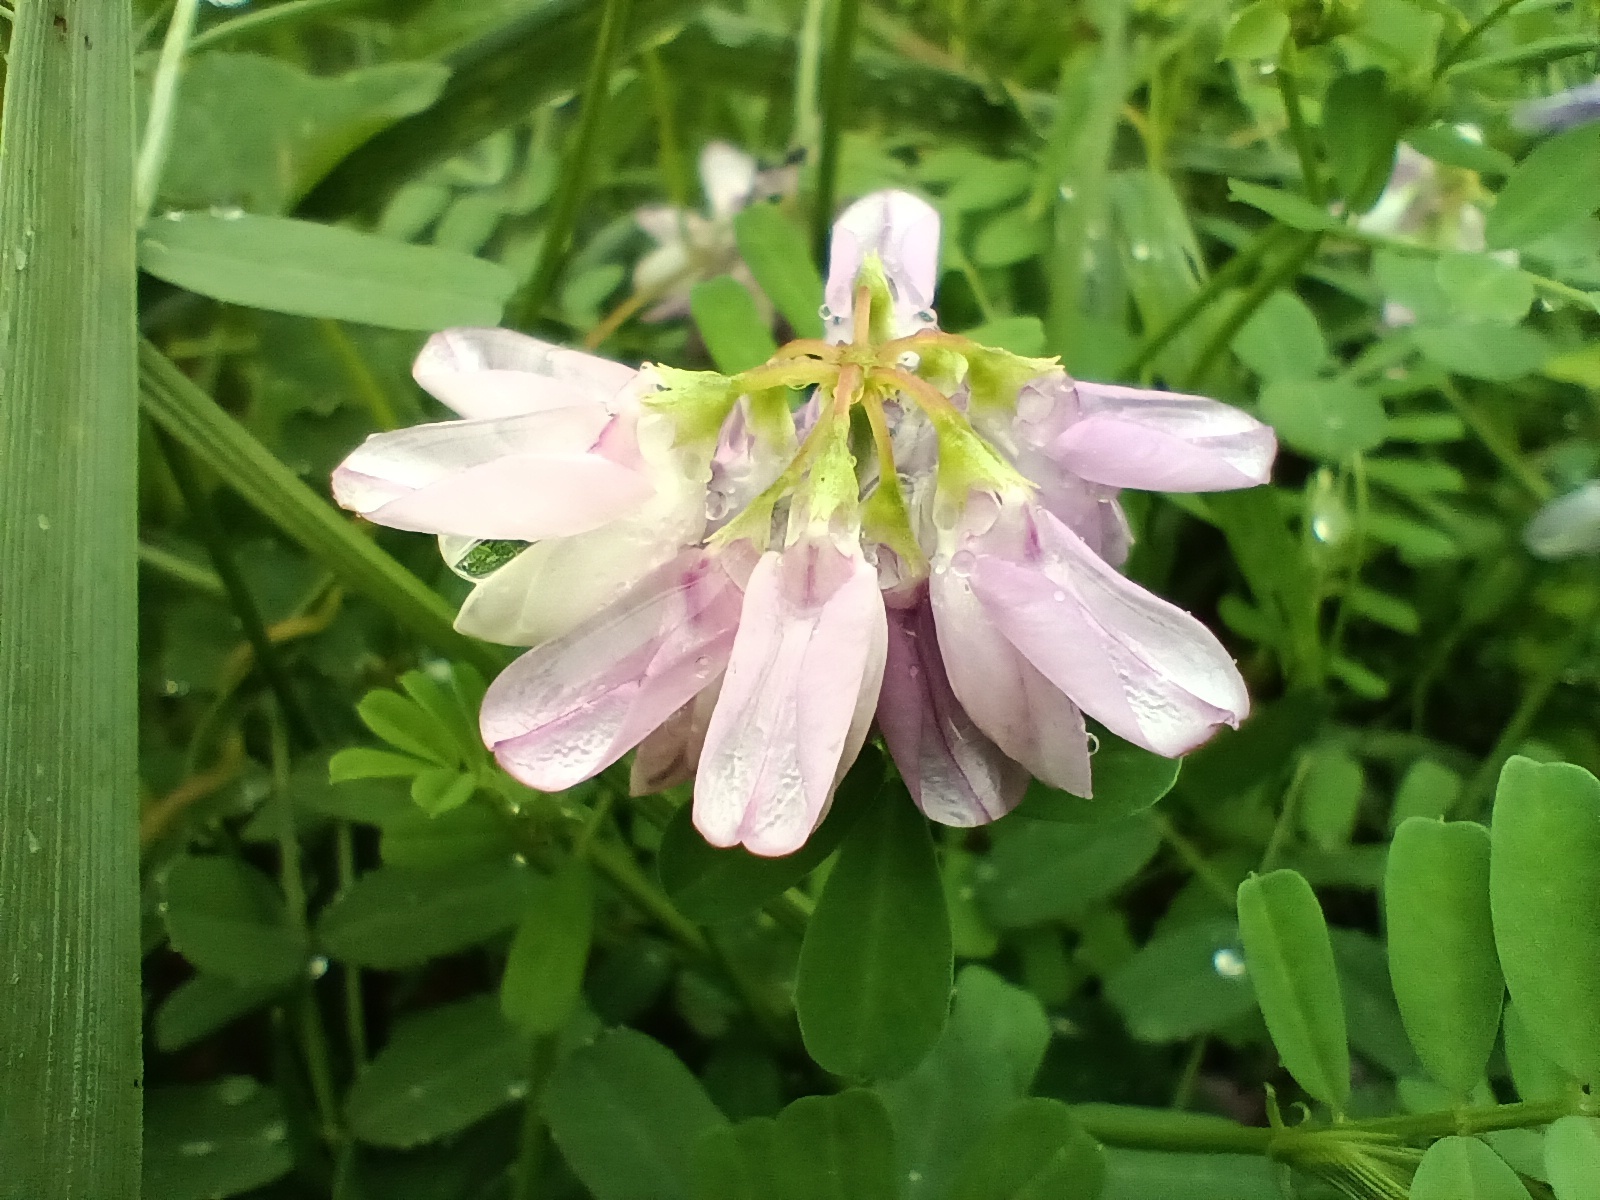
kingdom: Plantae
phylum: Tracheophyta
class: Magnoliopsida
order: Fabales
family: Fabaceae
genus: Coronilla
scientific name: Coronilla varia
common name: Crownvetch
